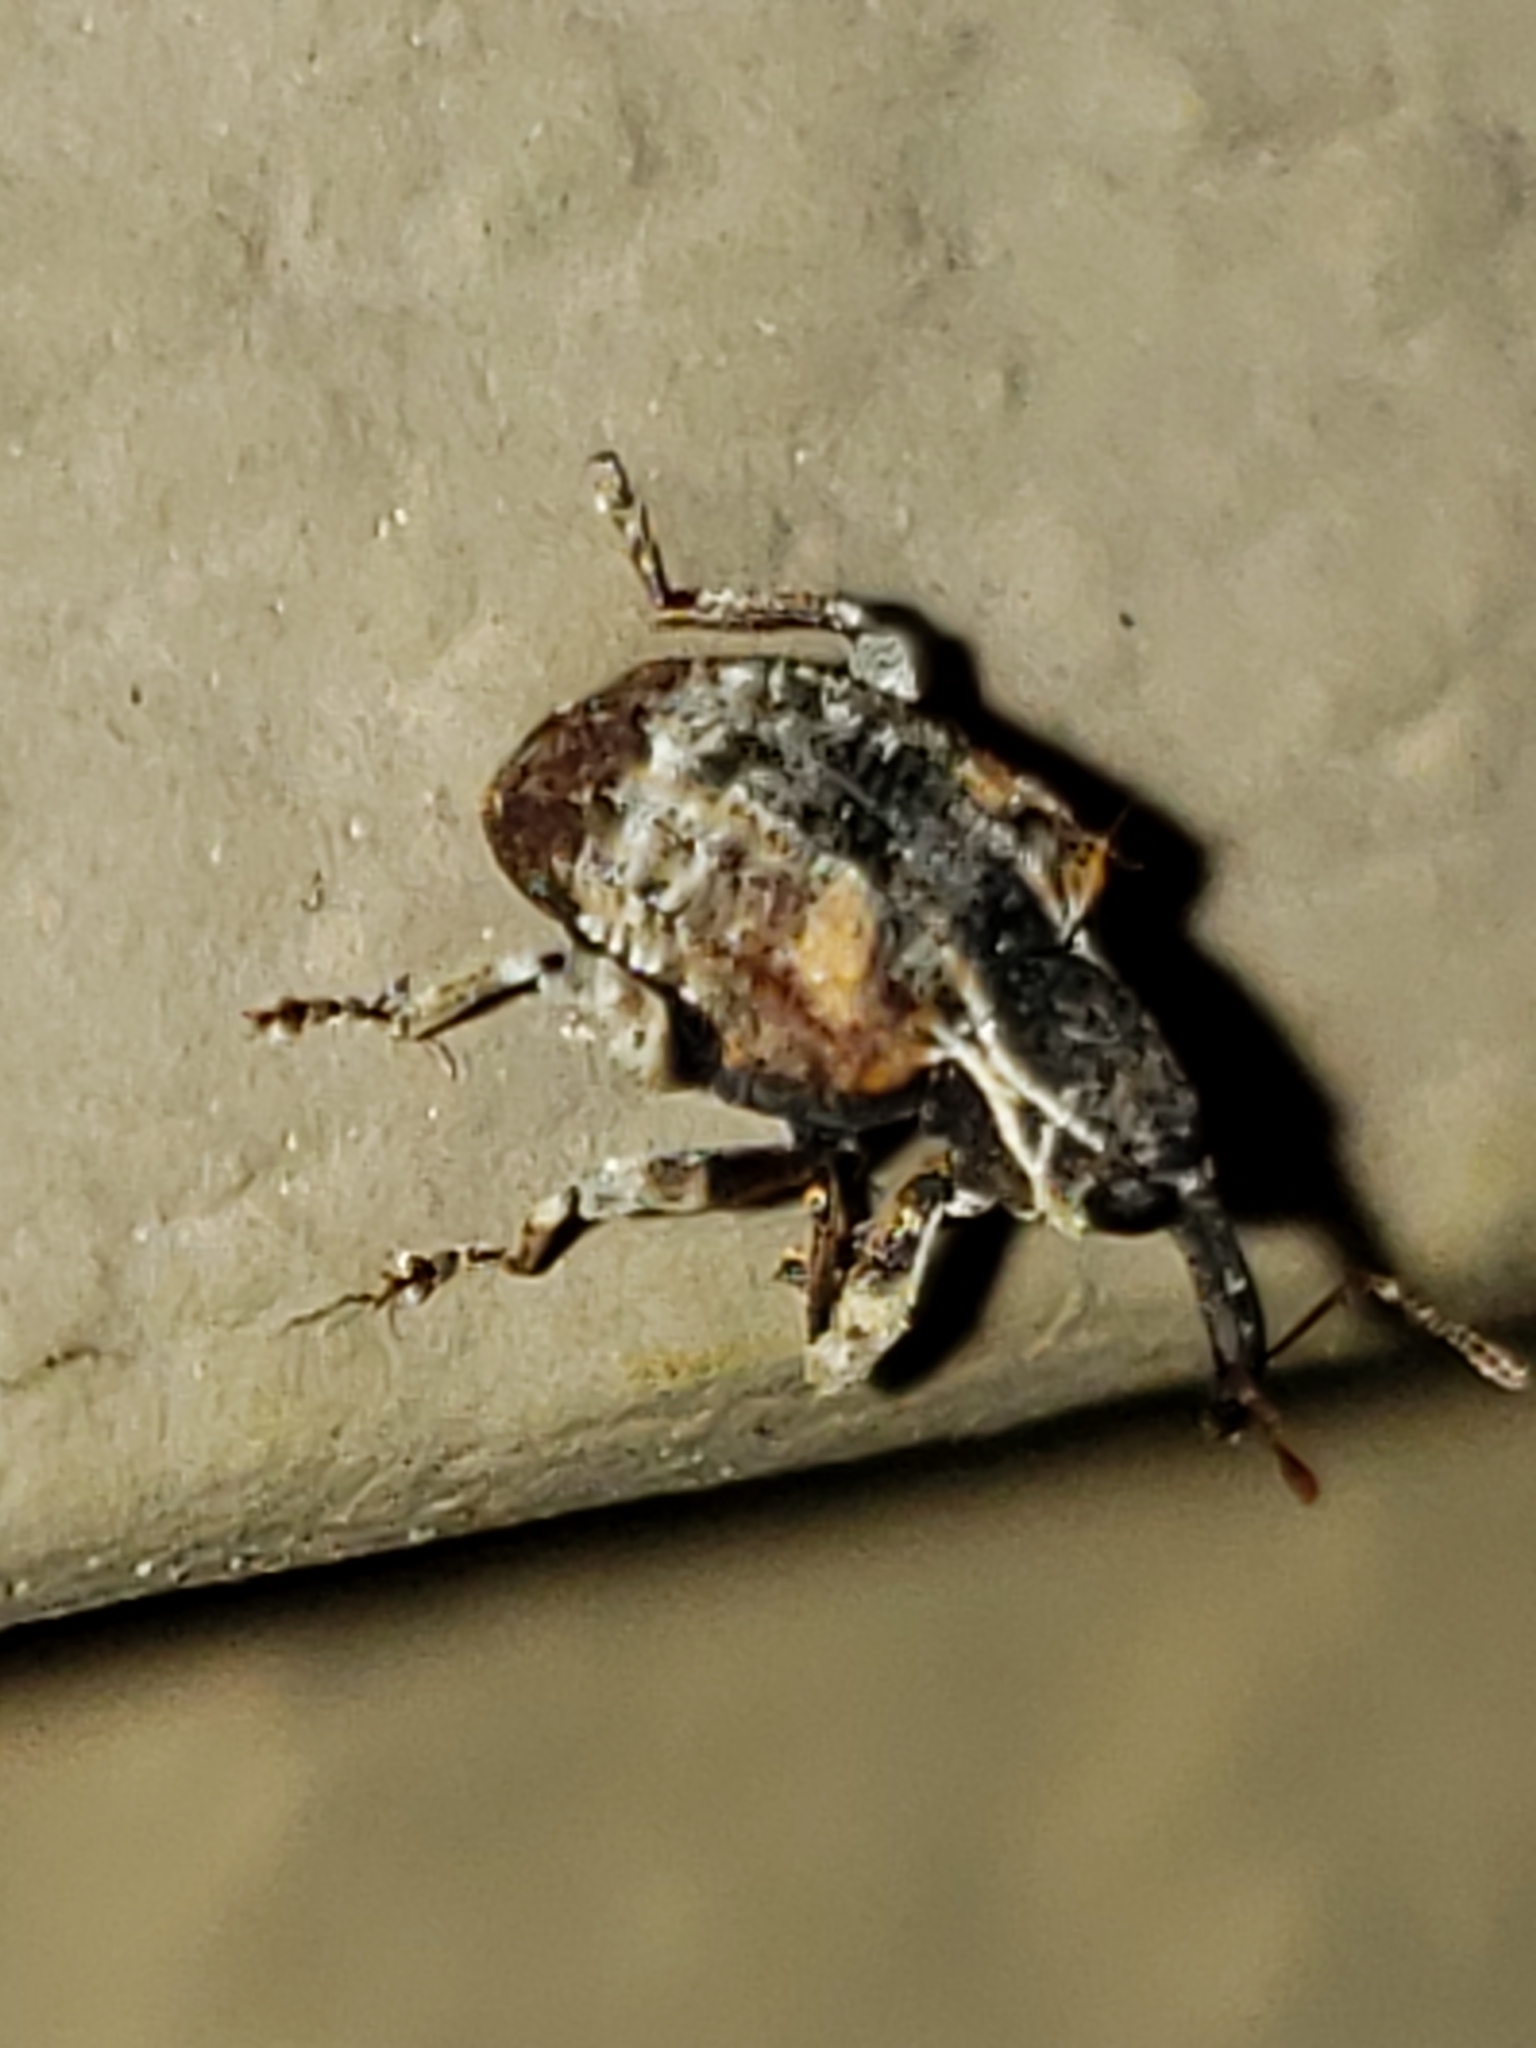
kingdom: Animalia
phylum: Arthropoda
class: Insecta
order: Coleoptera
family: Curculionidae
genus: Conotrachelus
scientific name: Conotrachelus anaglypticus
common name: Cambium curculio
